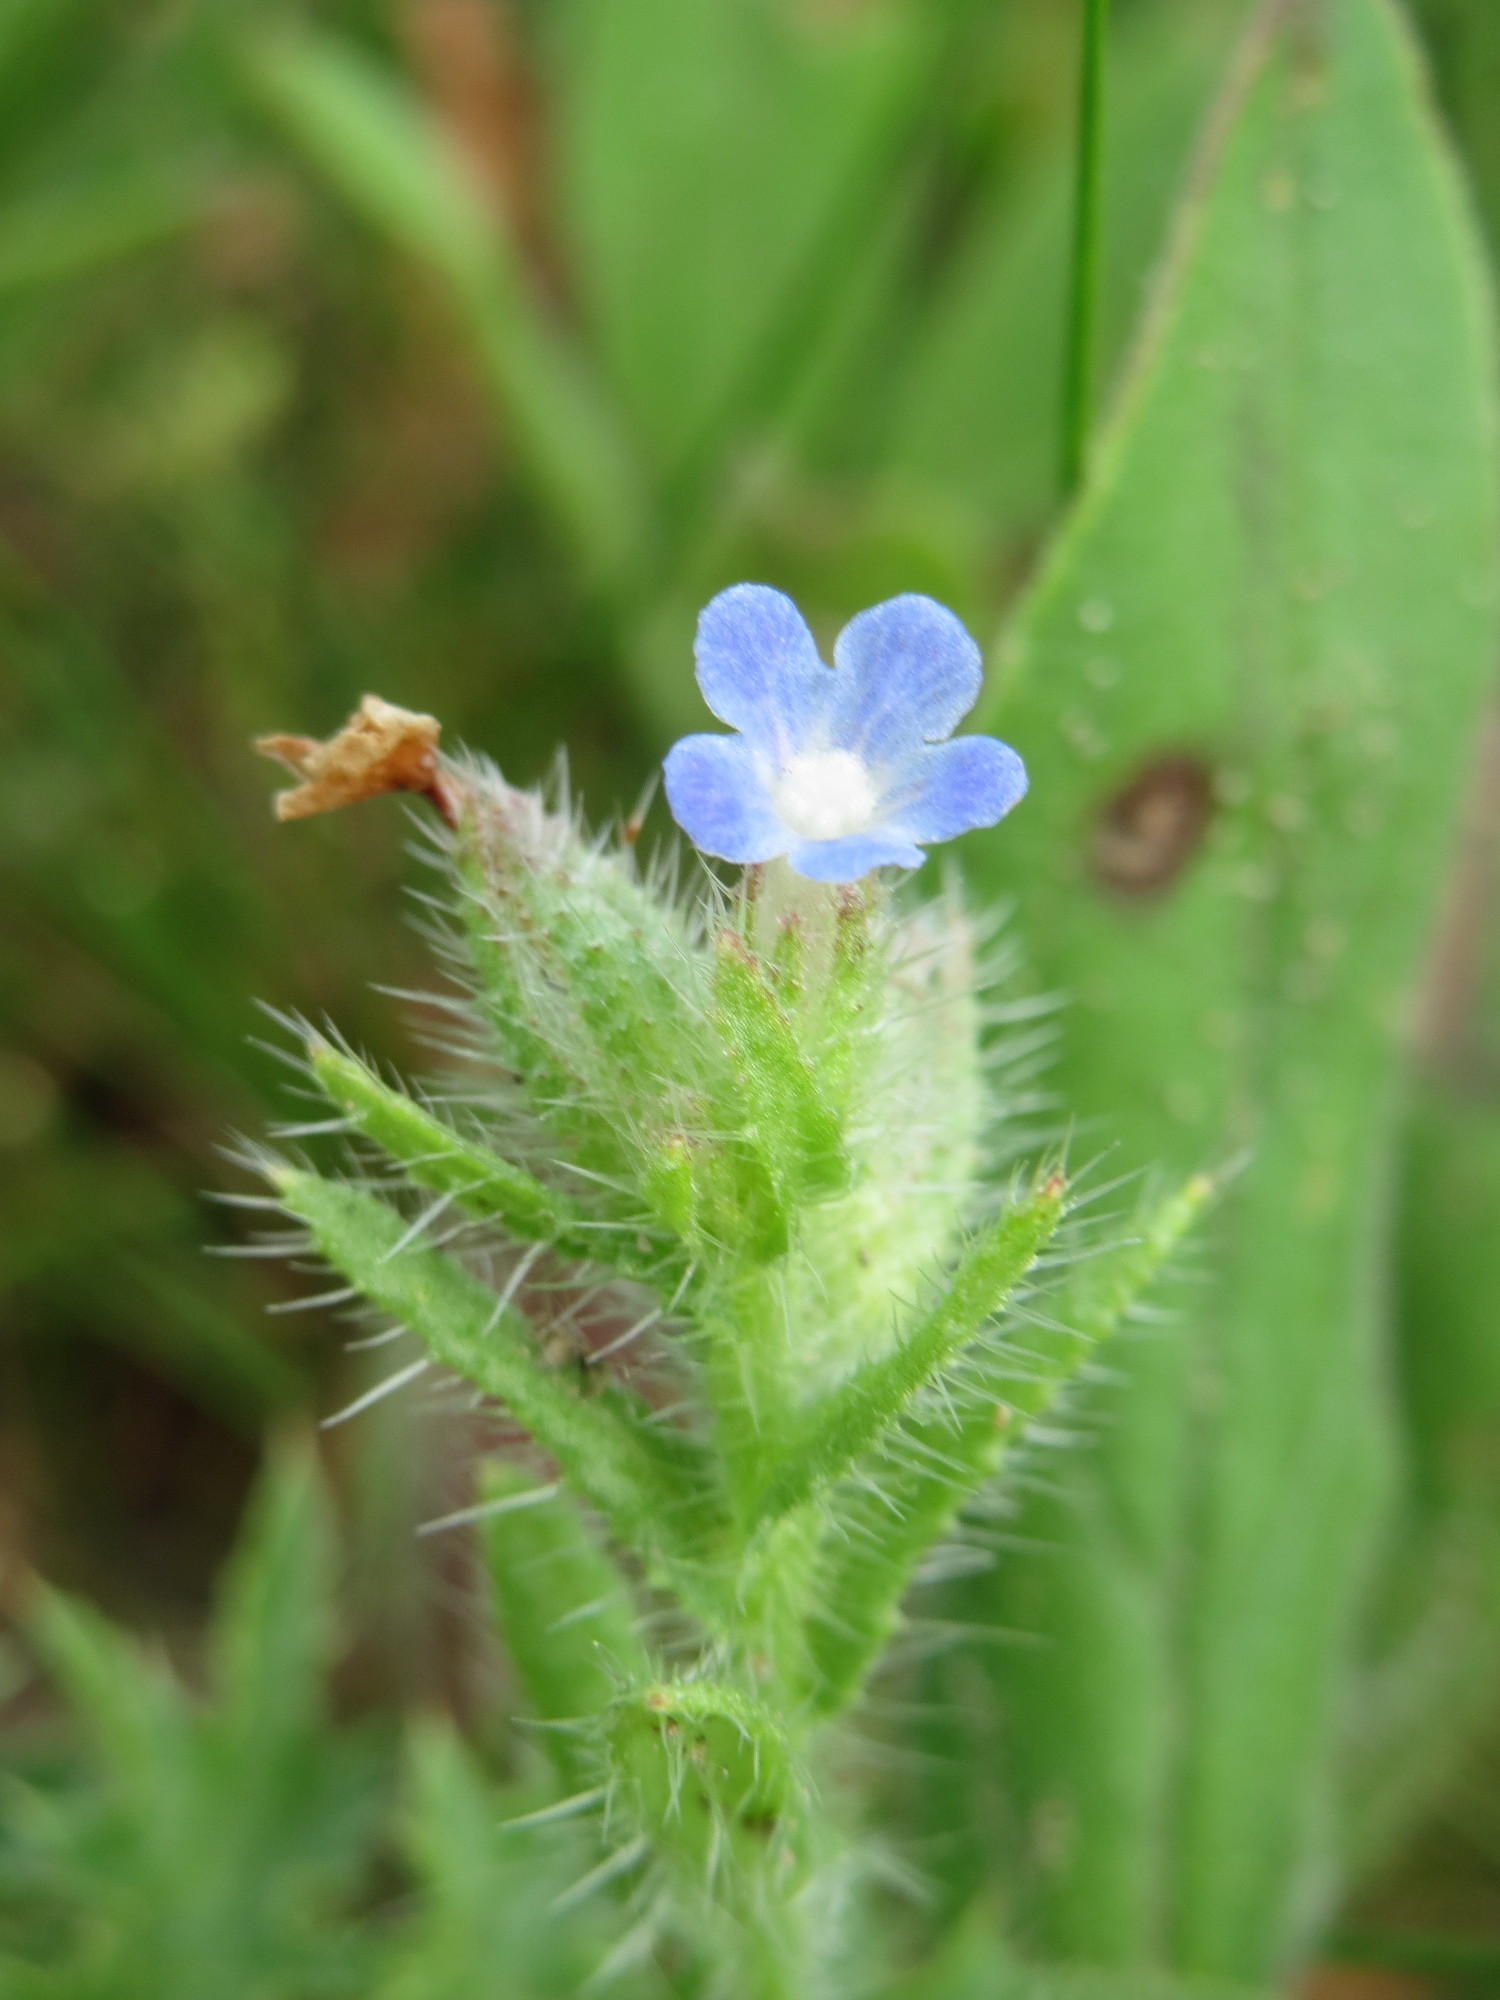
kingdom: Plantae
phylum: Tracheophyta
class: Magnoliopsida
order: Boraginales
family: Boraginaceae
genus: Lycopsis
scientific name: Lycopsis arvensis
